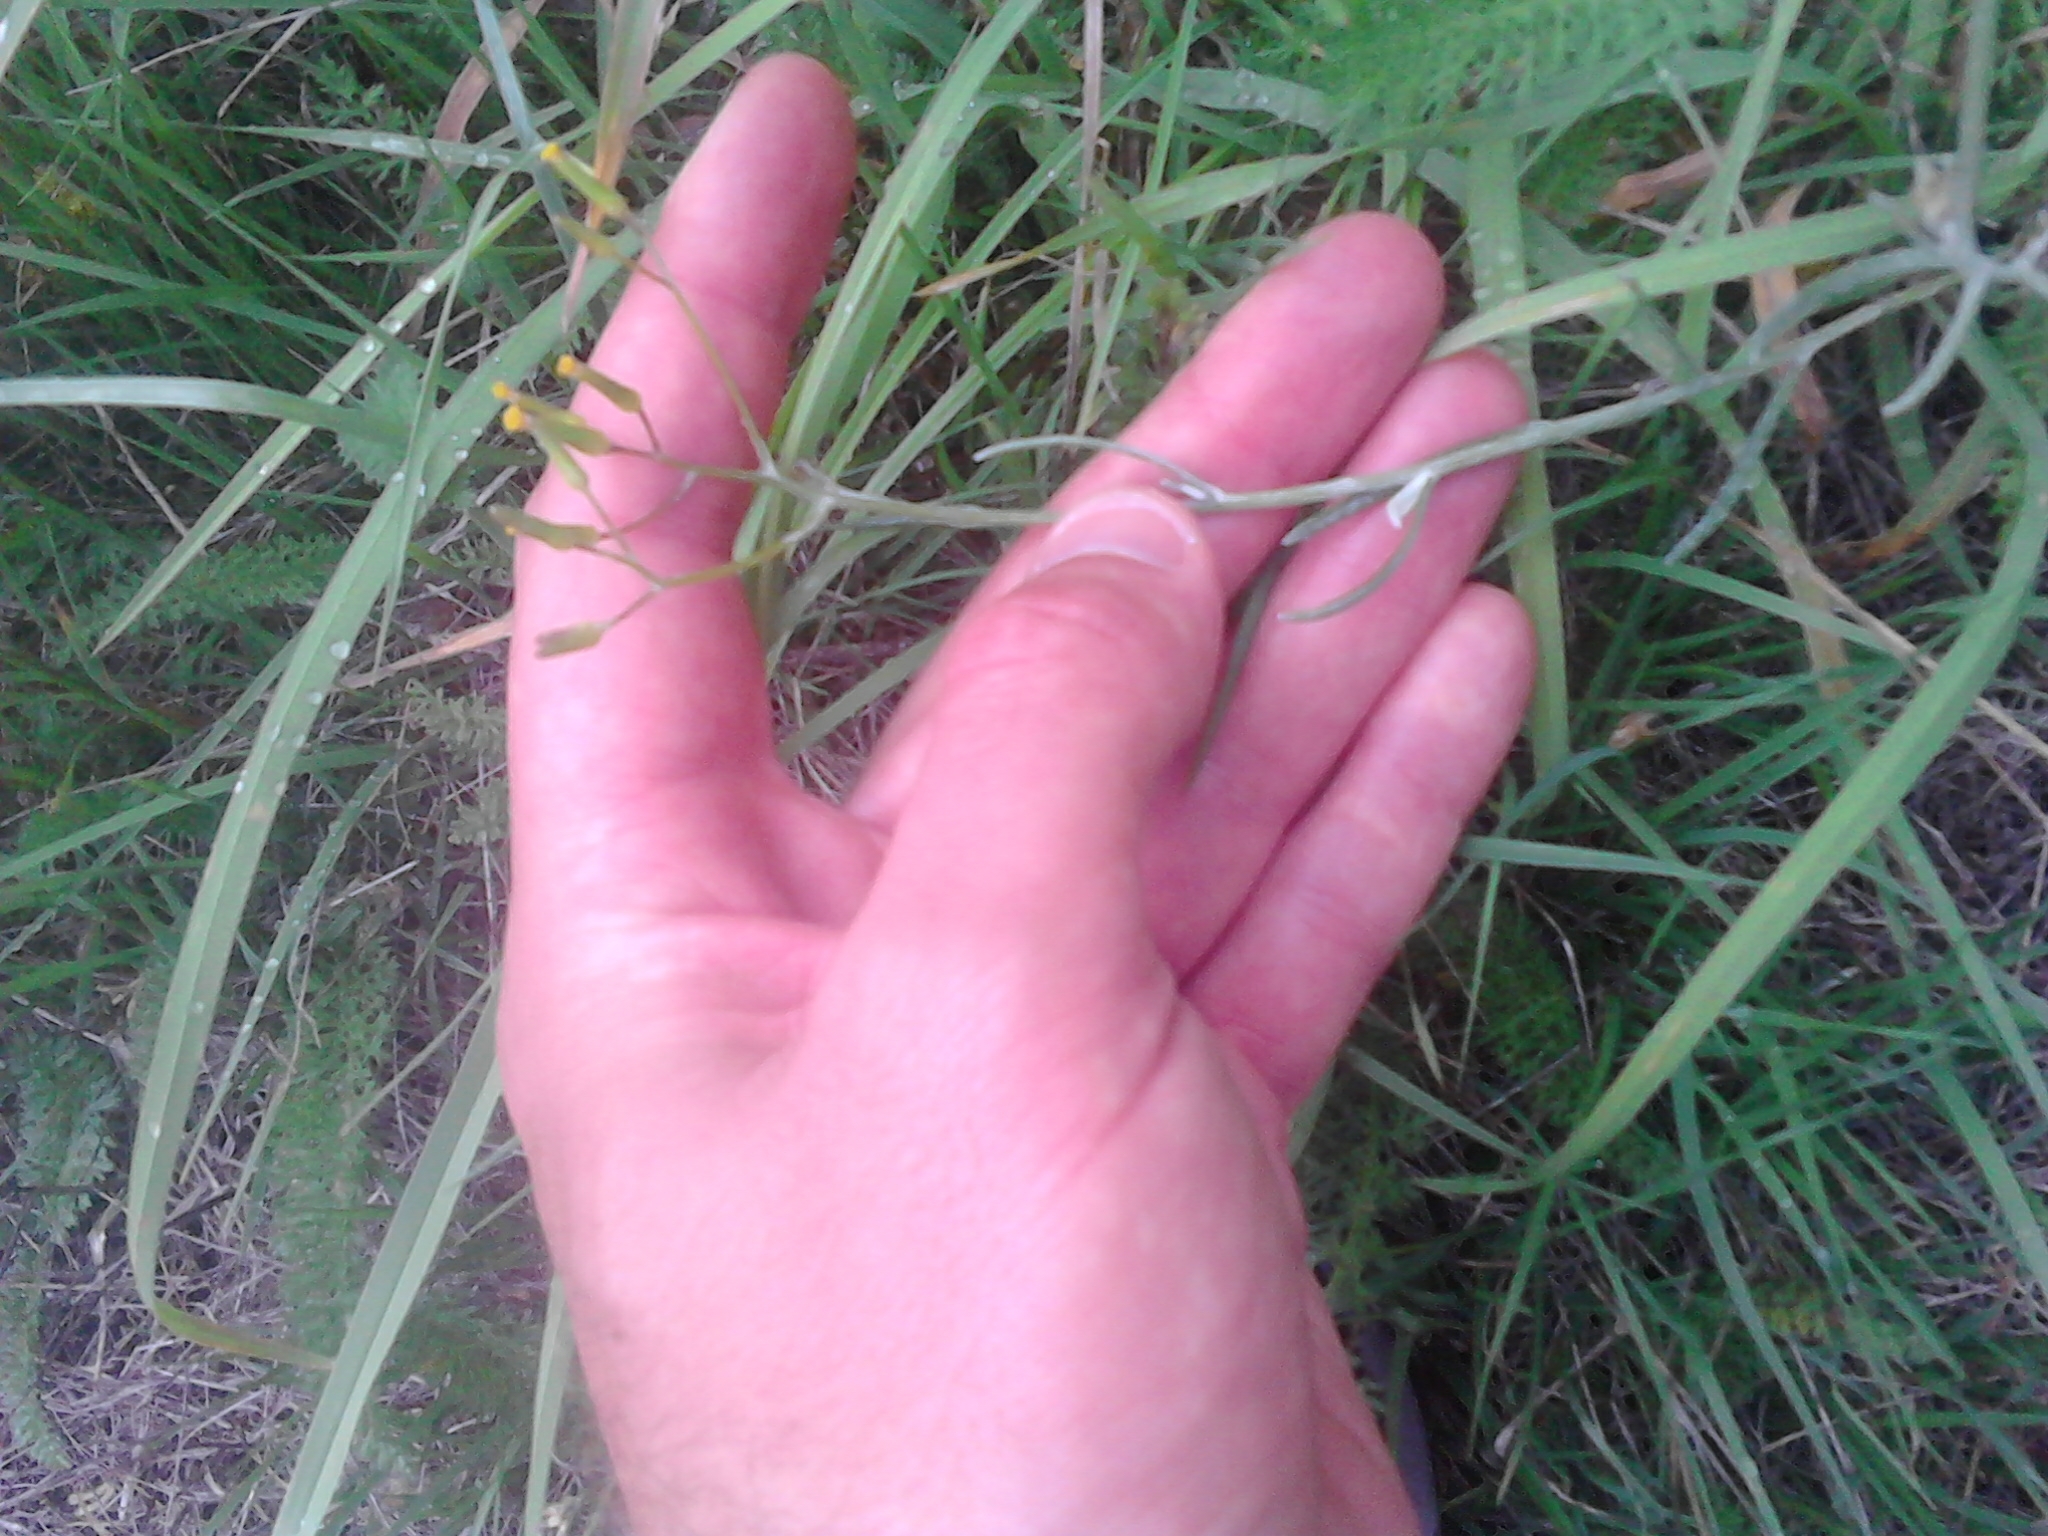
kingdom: Plantae
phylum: Tracheophyta
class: Magnoliopsida
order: Asterales
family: Asteraceae
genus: Senecio
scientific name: Senecio quadridentatus
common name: Cotton fireweed
